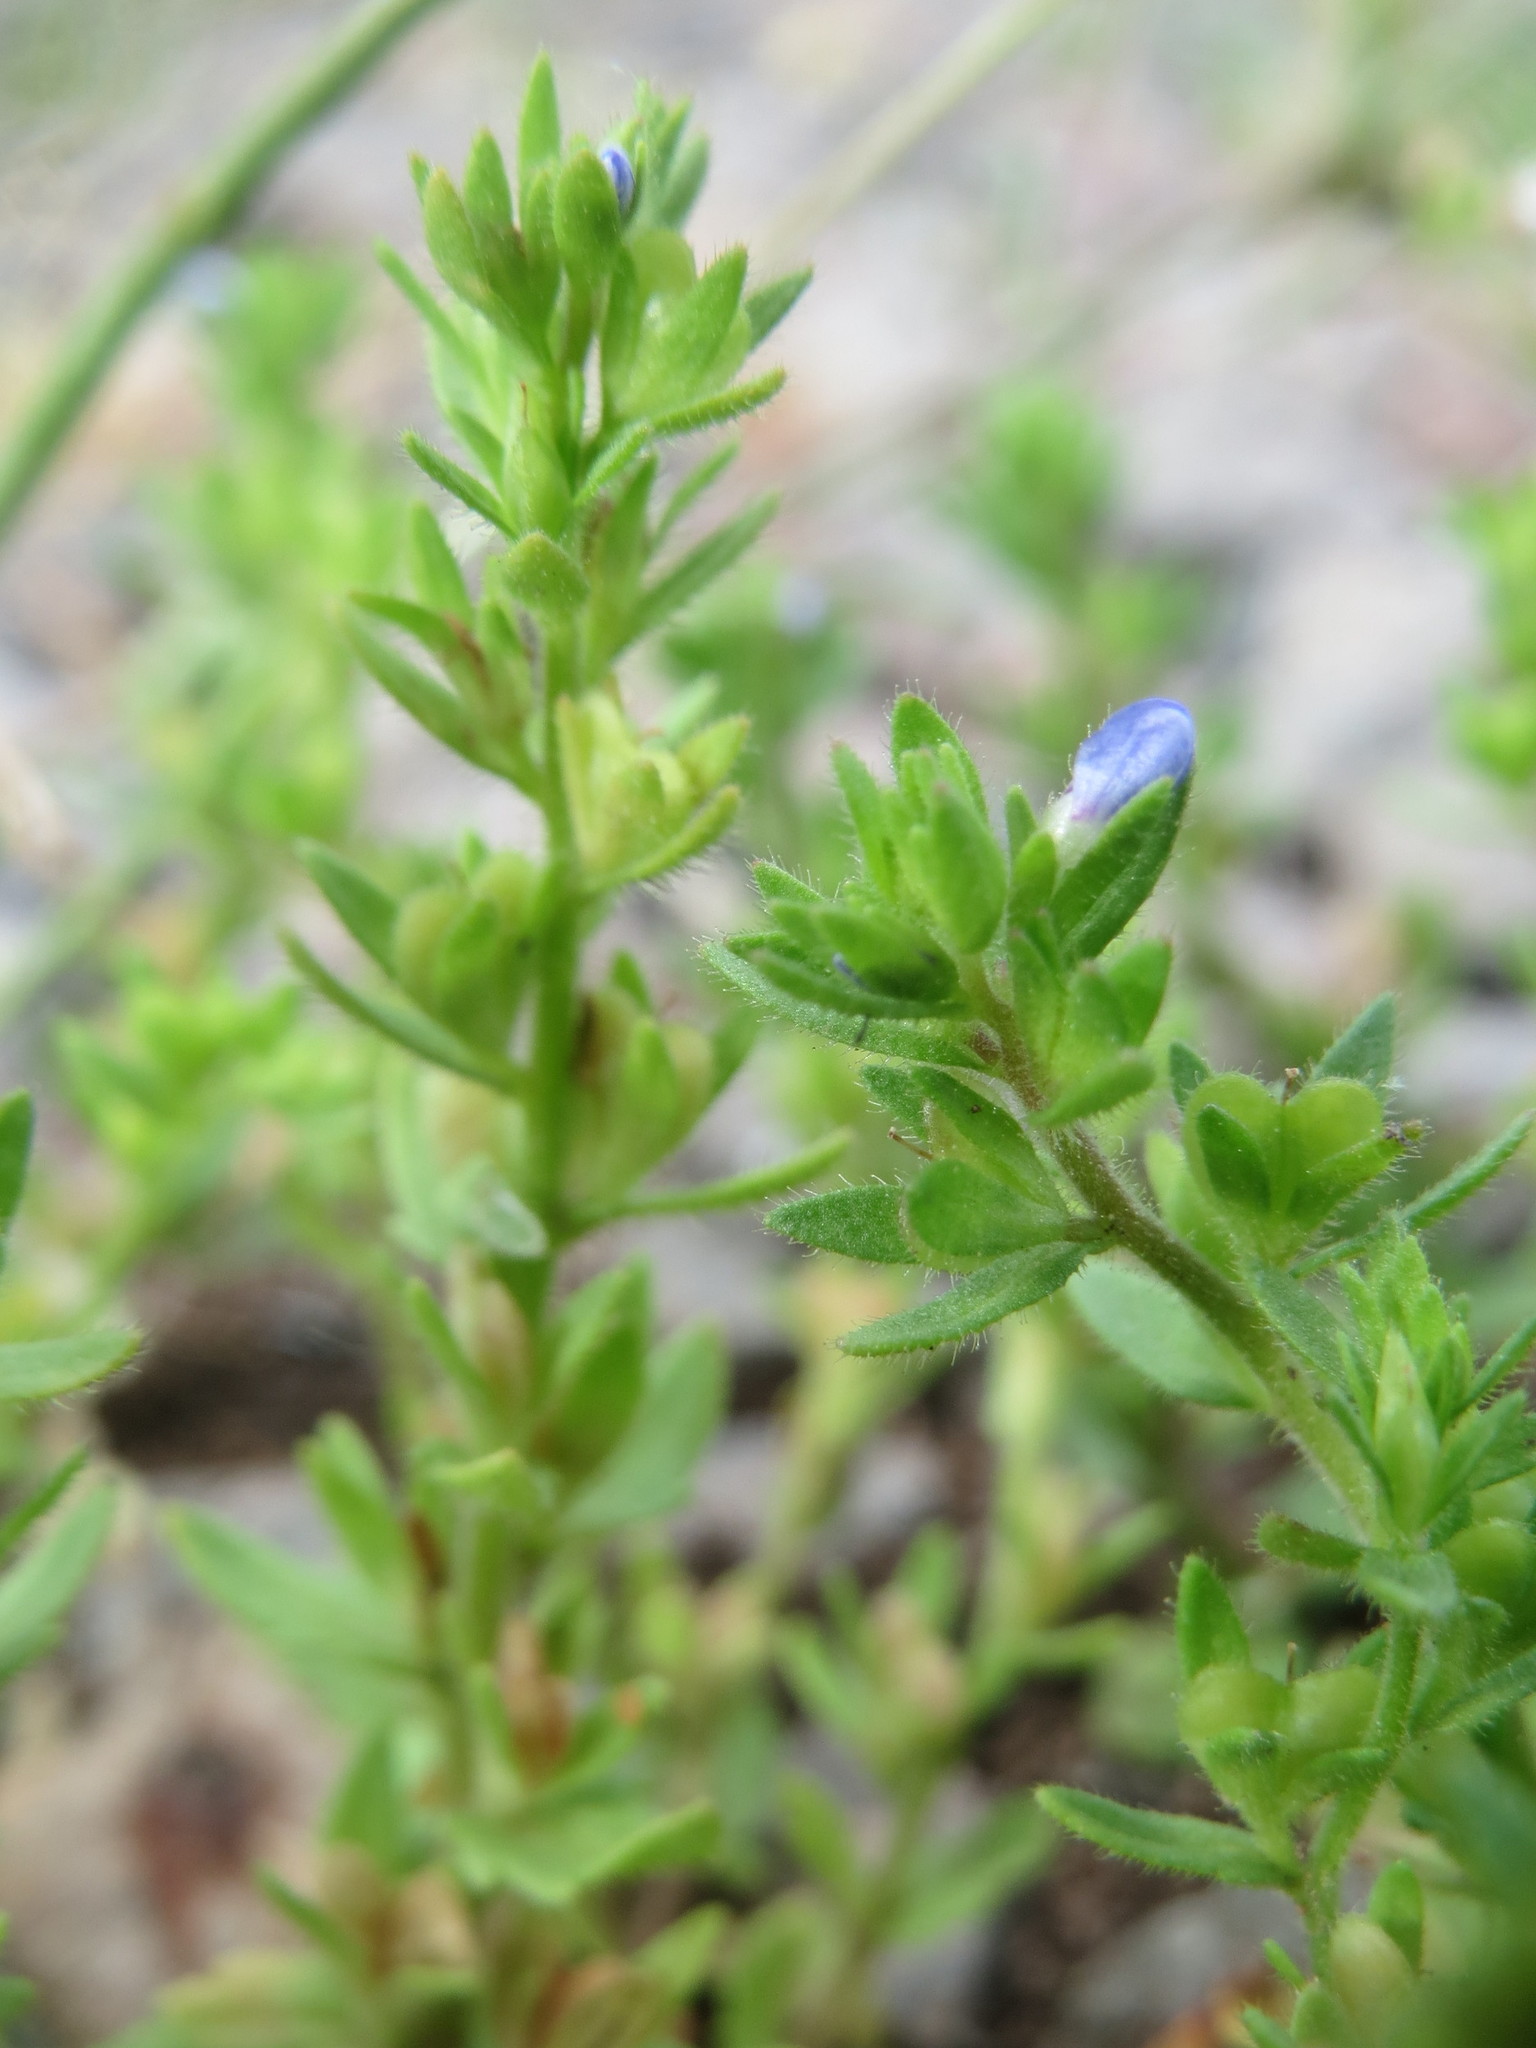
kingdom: Plantae
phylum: Tracheophyta
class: Magnoliopsida
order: Lamiales
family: Plantaginaceae
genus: Veronica
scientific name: Veronica arvensis
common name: Corn speedwell
